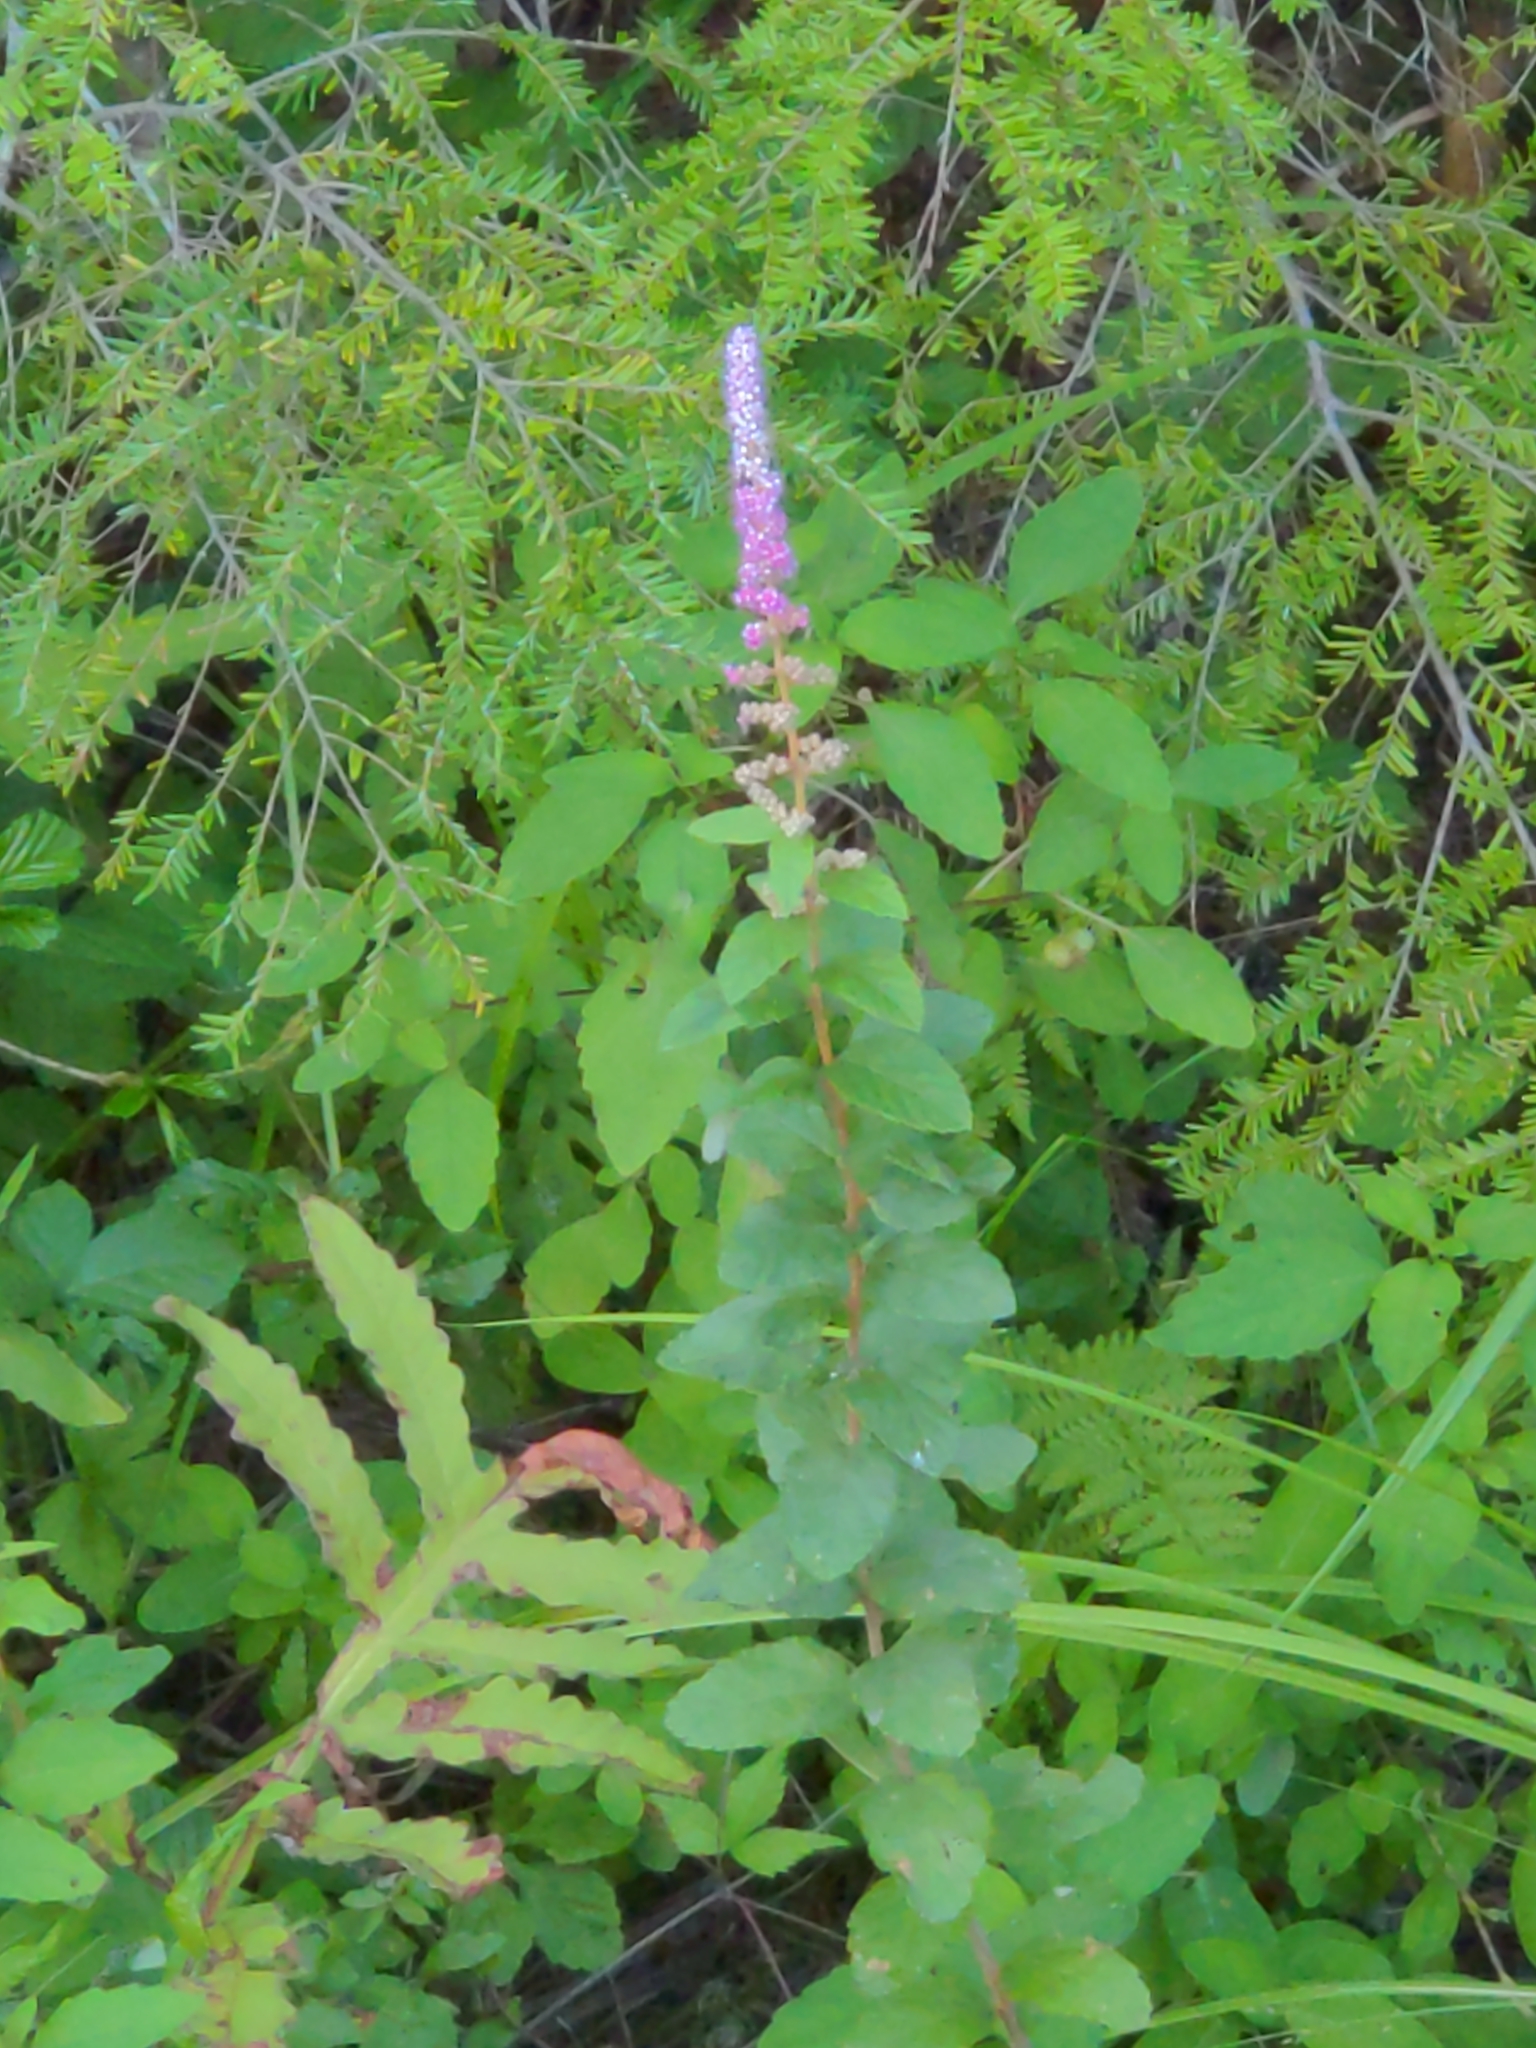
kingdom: Plantae
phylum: Tracheophyta
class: Magnoliopsida
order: Rosales
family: Rosaceae
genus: Spiraea
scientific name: Spiraea tomentosa
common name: Hardhack
